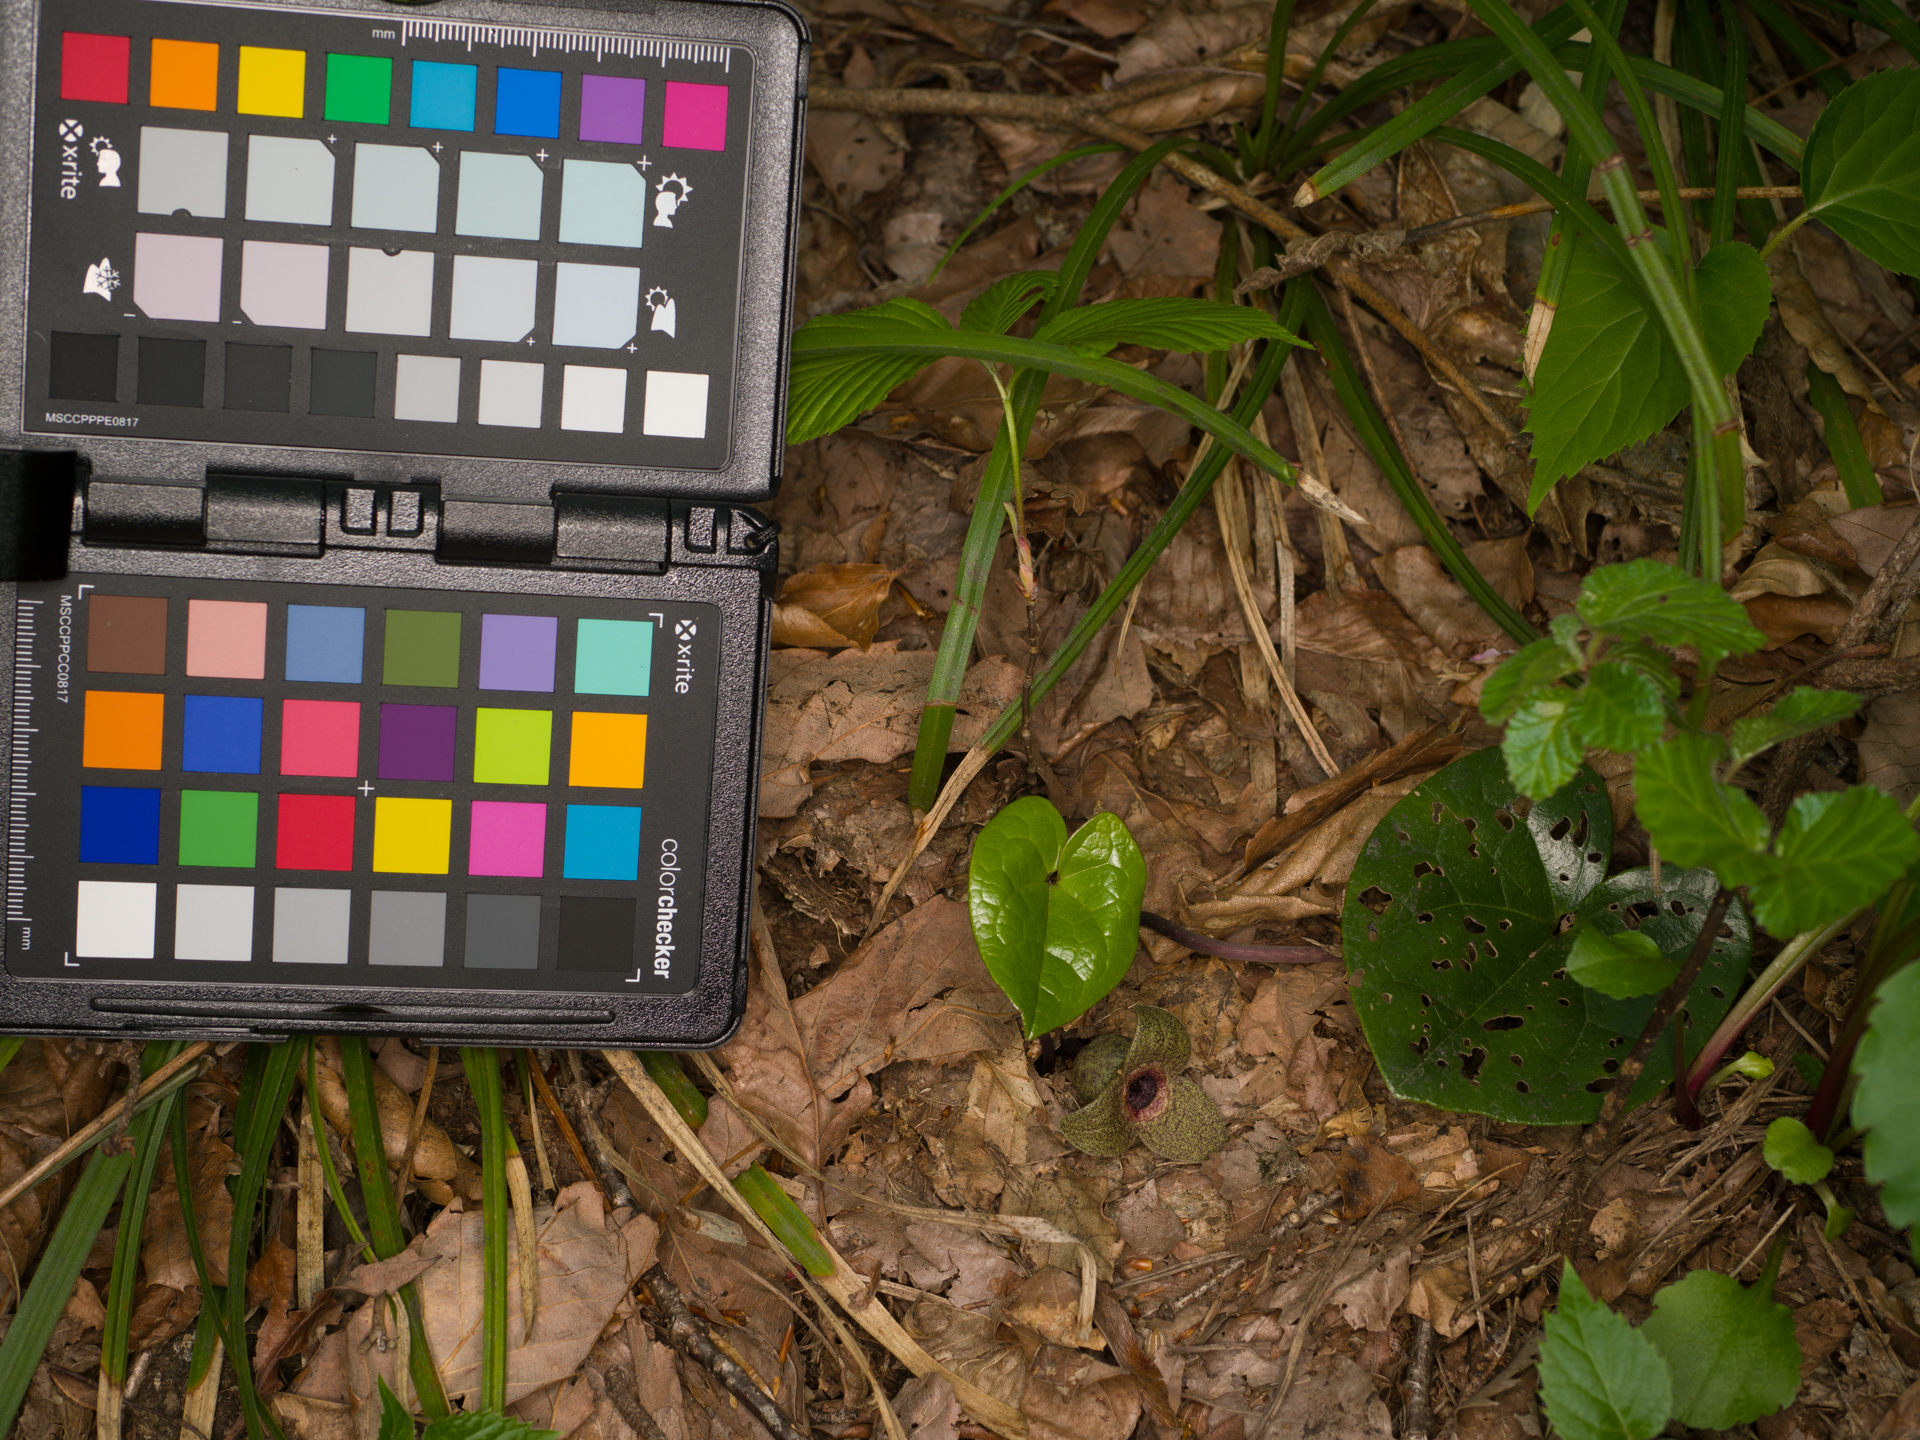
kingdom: Plantae
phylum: Tracheophyta
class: Magnoliopsida
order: Piperales
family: Aristolochiaceae
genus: Asarum
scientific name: Asarum ikegamii
